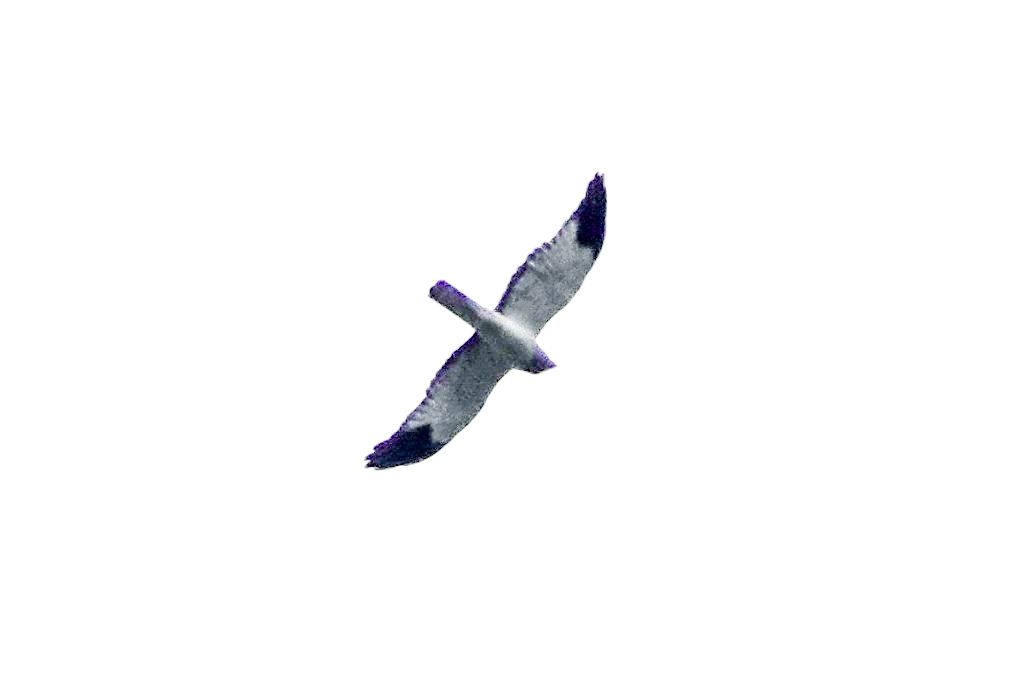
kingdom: Animalia
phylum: Chordata
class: Aves
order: Accipitriformes
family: Accipitridae
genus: Circus
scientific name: Circus cyaneus
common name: Hen harrier
